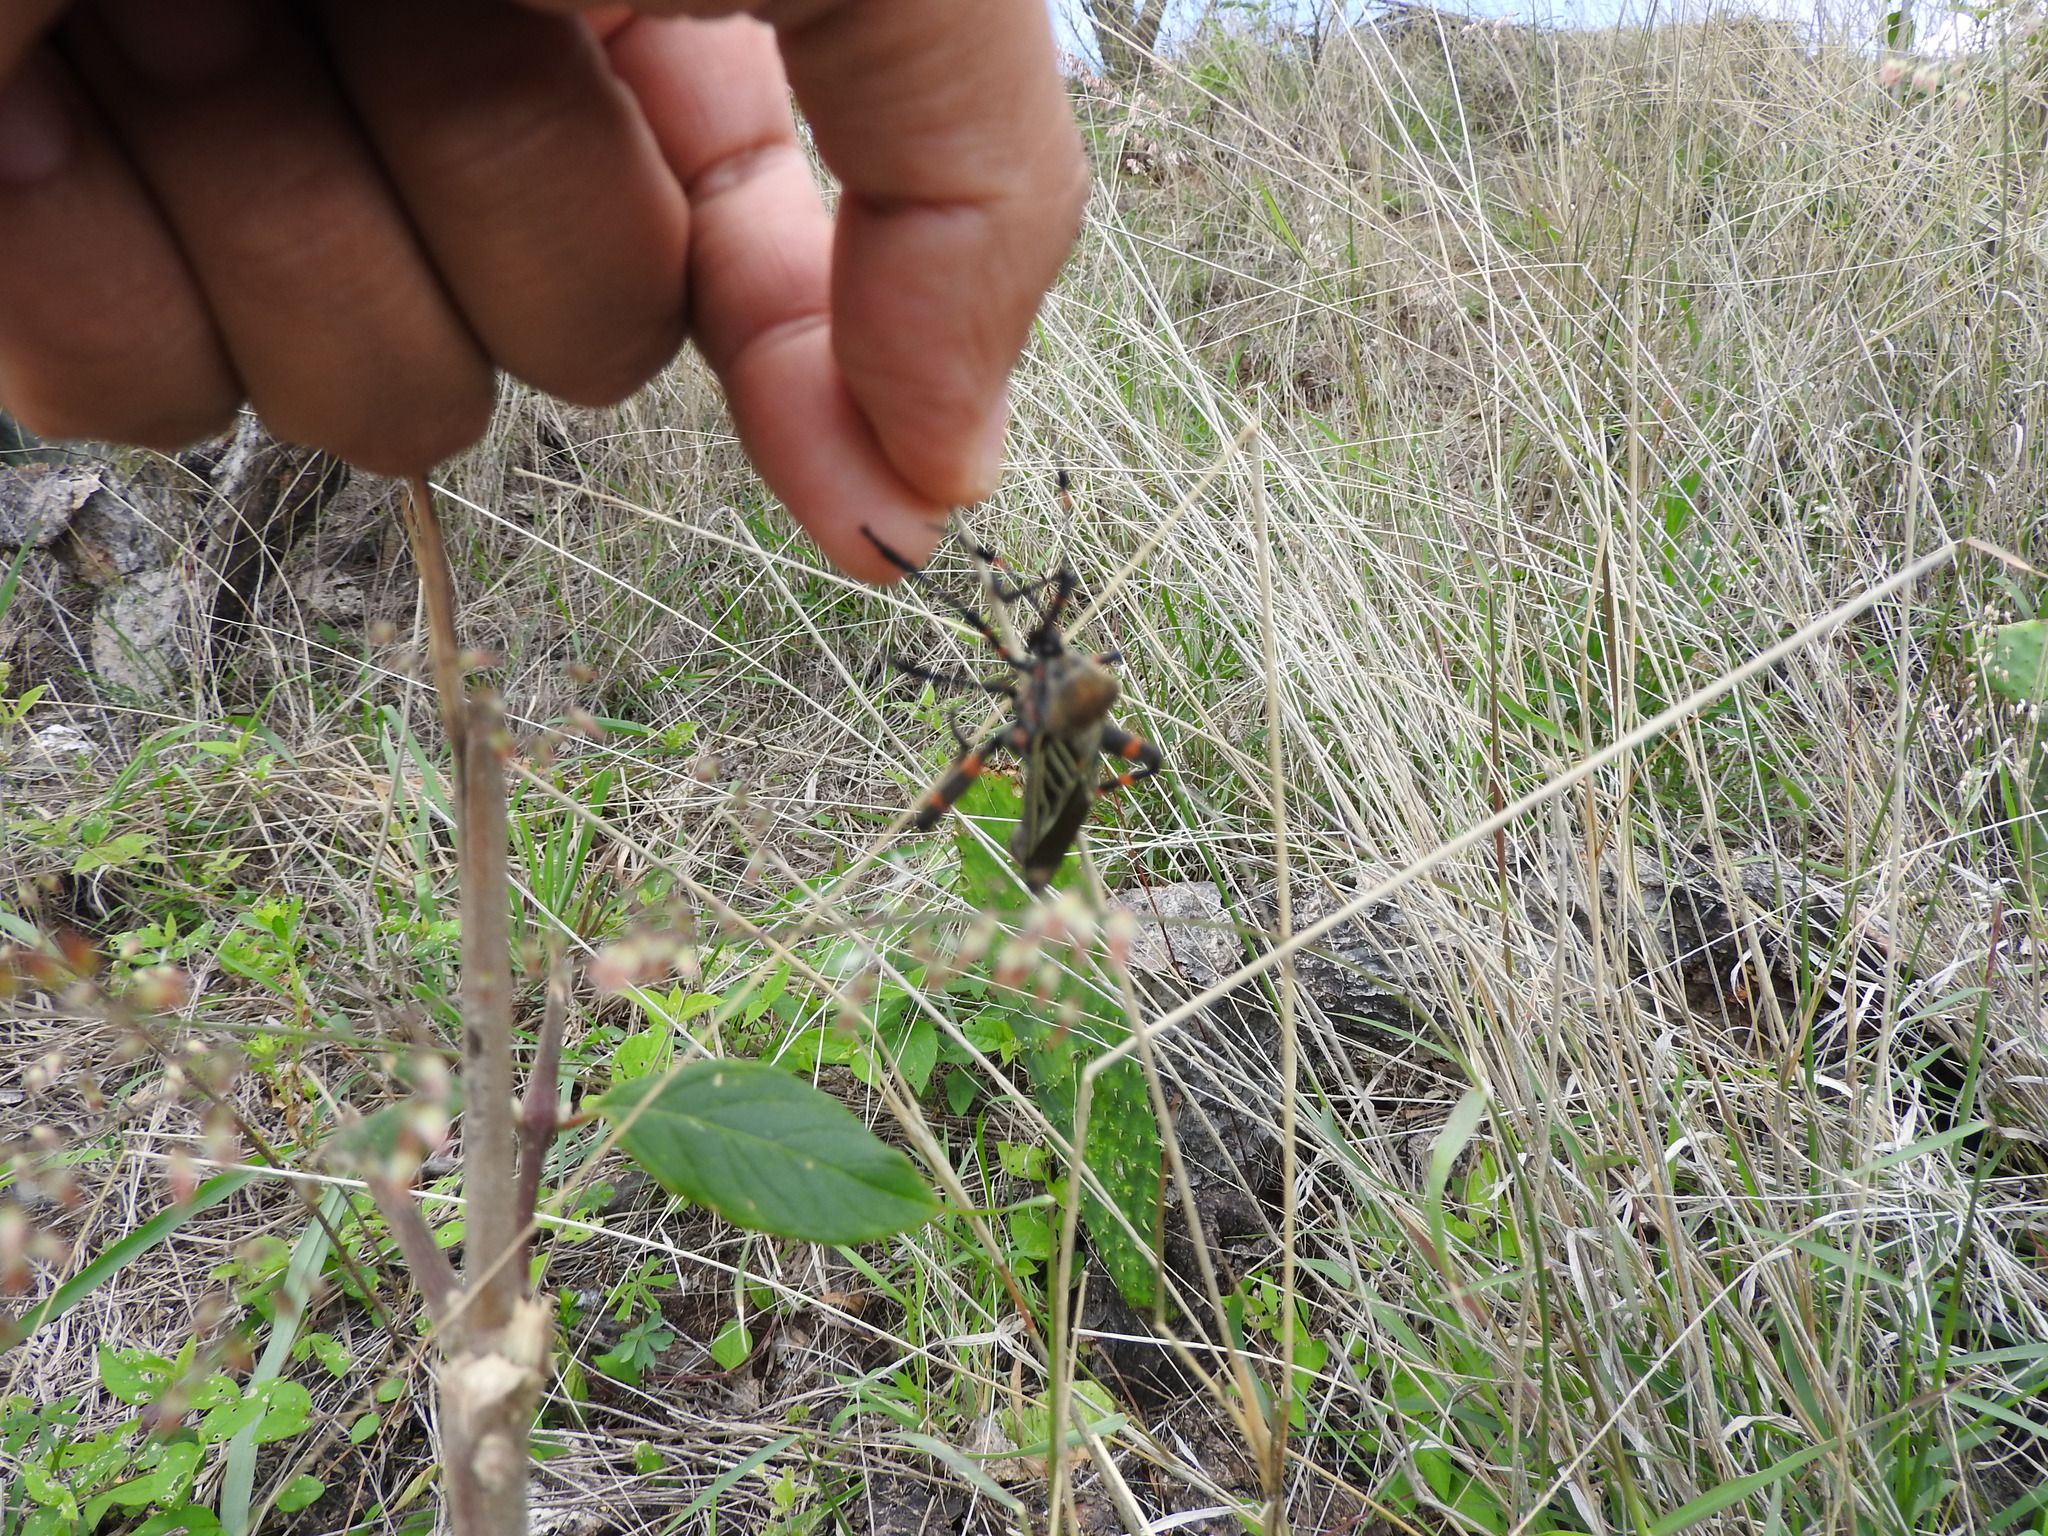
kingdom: Animalia
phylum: Arthropoda
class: Insecta
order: Hemiptera
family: Coreidae
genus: Thasus
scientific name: Thasus
